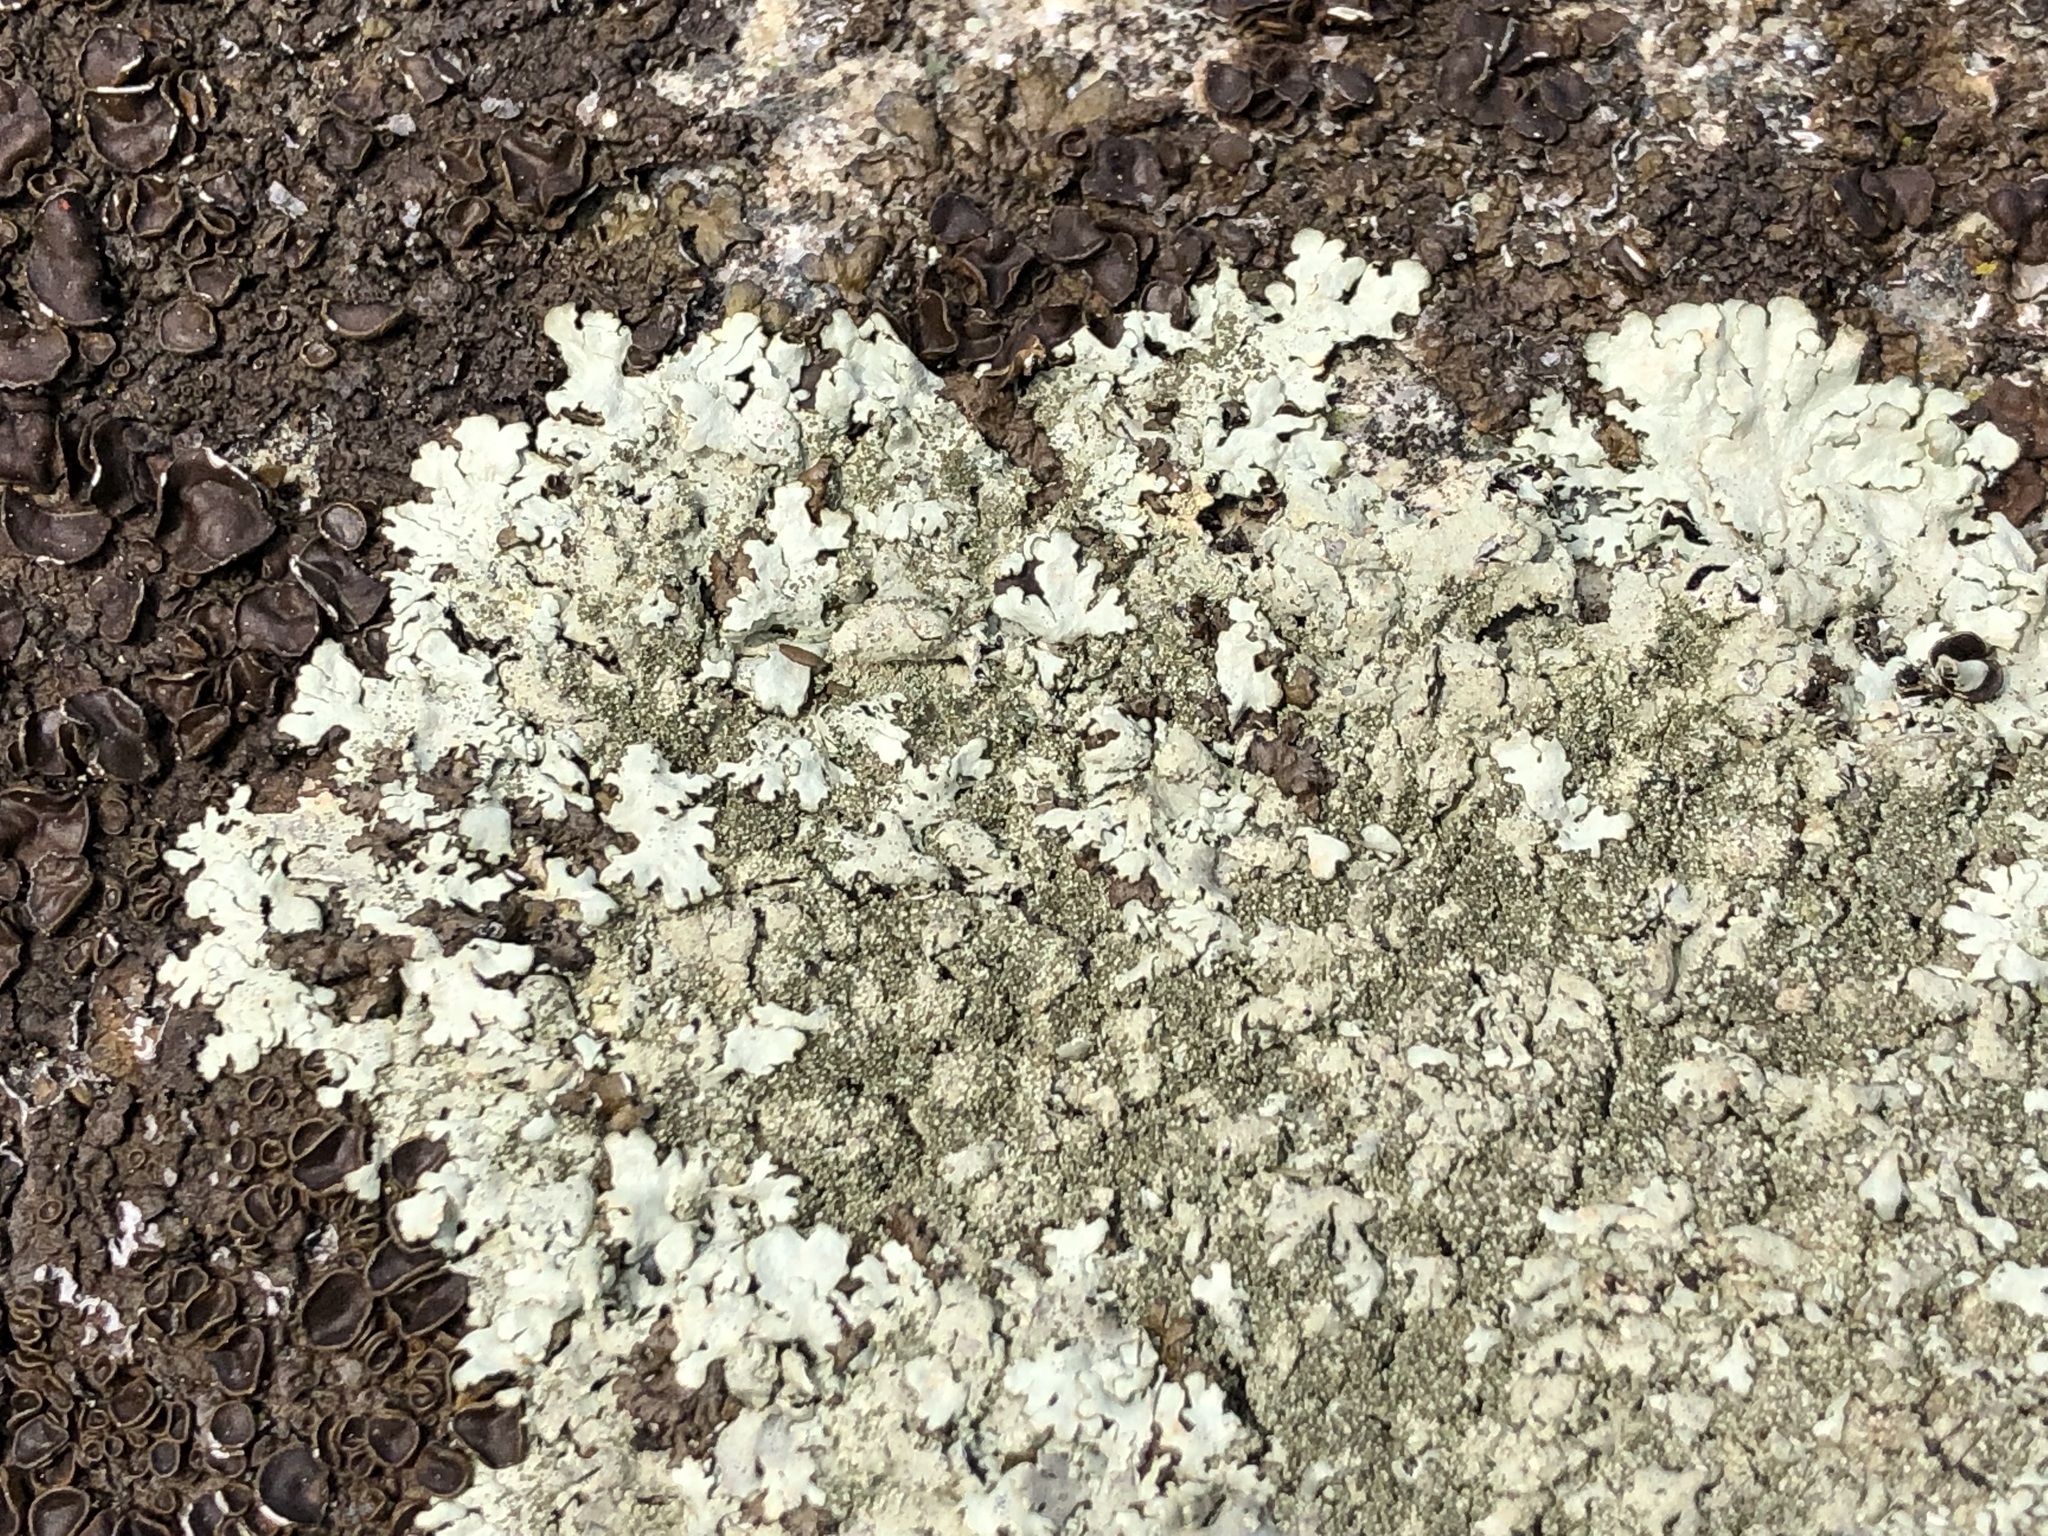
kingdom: Fungi
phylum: Ascomycota
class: Lecanoromycetes
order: Lecanorales
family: Parmeliaceae
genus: Xanthoparmelia
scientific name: Xanthoparmelia conspersa
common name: Peppered rock shield
